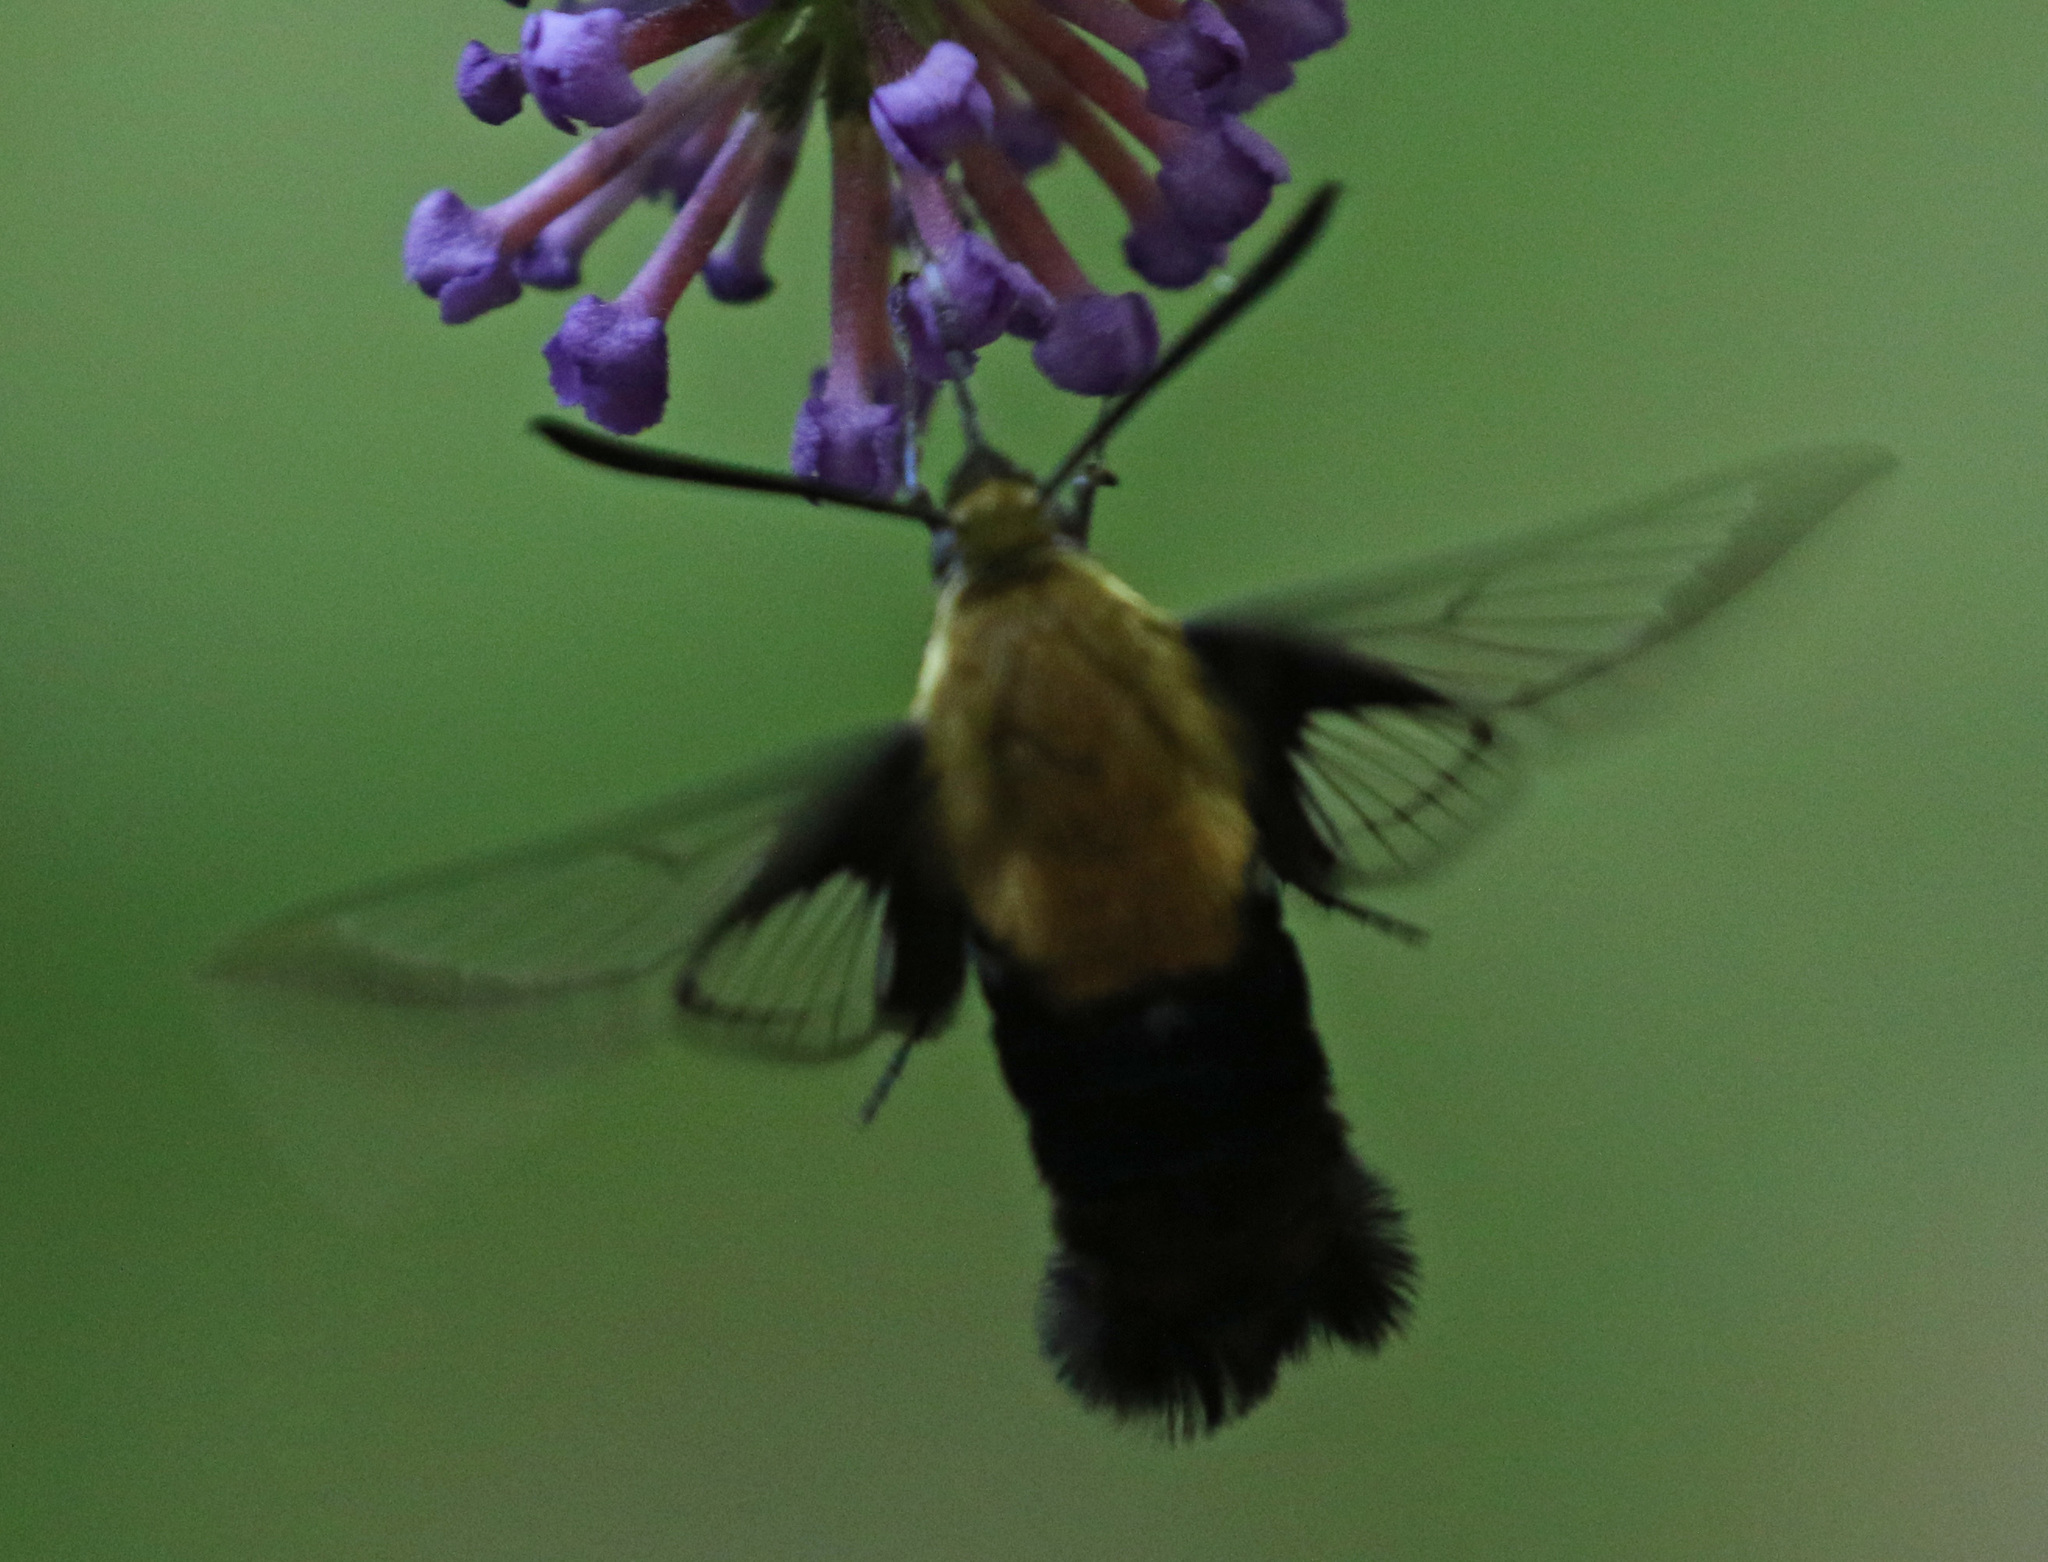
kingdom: Animalia
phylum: Arthropoda
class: Insecta
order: Lepidoptera
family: Sphingidae
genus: Hemaris
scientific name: Hemaris diffinis
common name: Bumblebee moth
